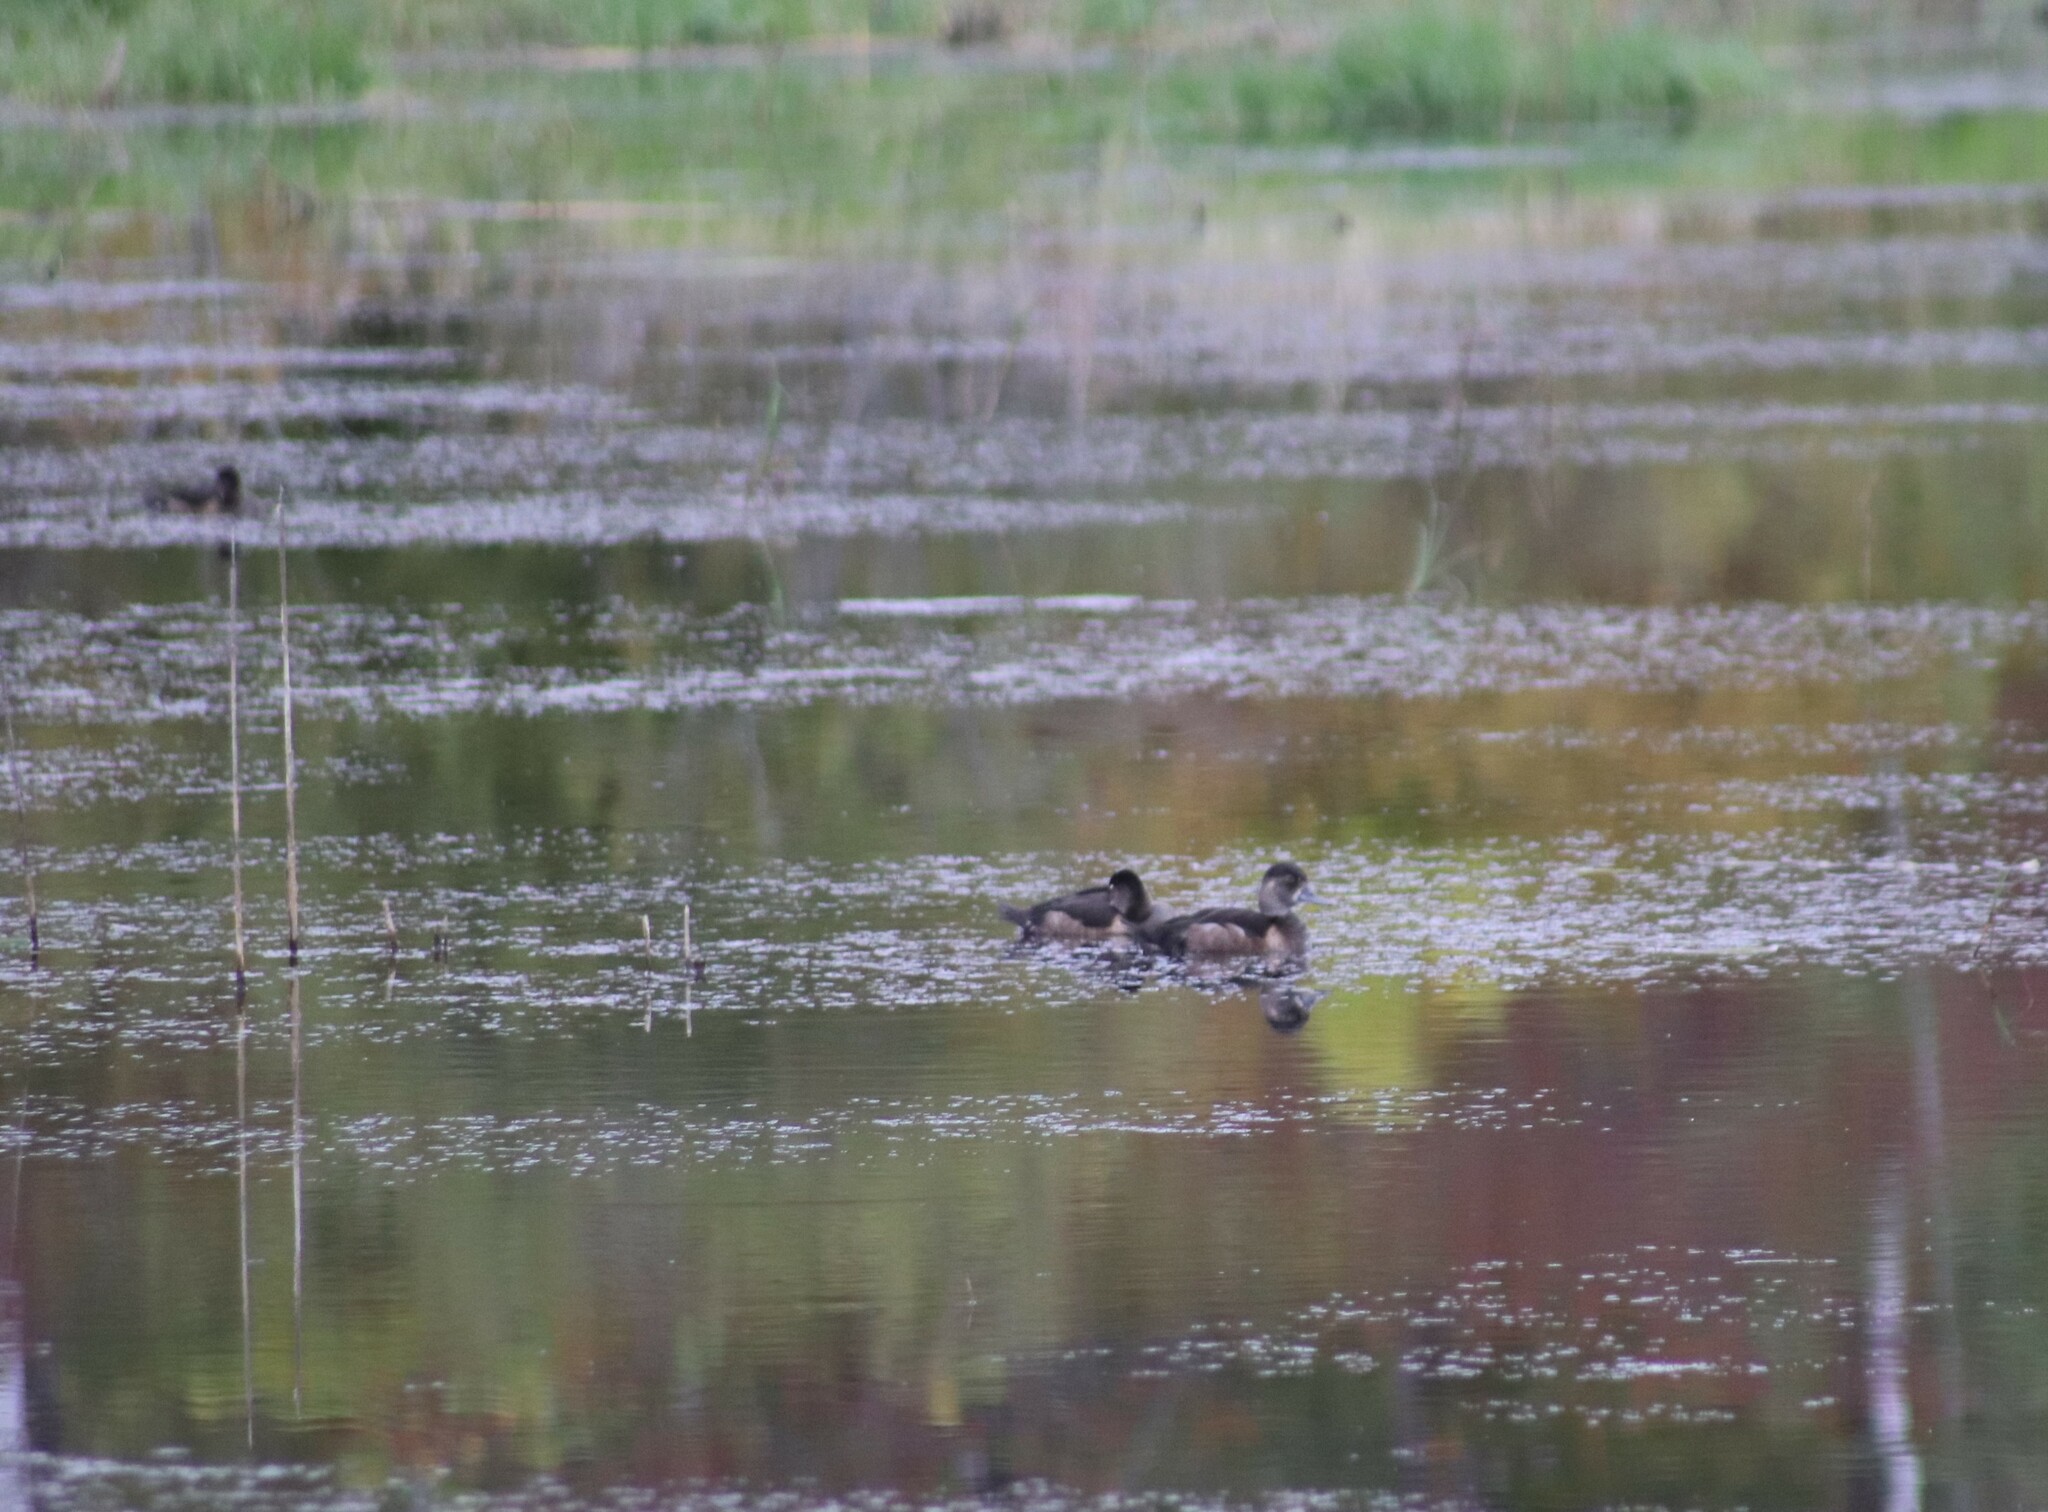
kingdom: Animalia
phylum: Chordata
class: Aves
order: Anseriformes
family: Anatidae
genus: Aythya
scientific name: Aythya collaris
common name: Ring-necked duck
